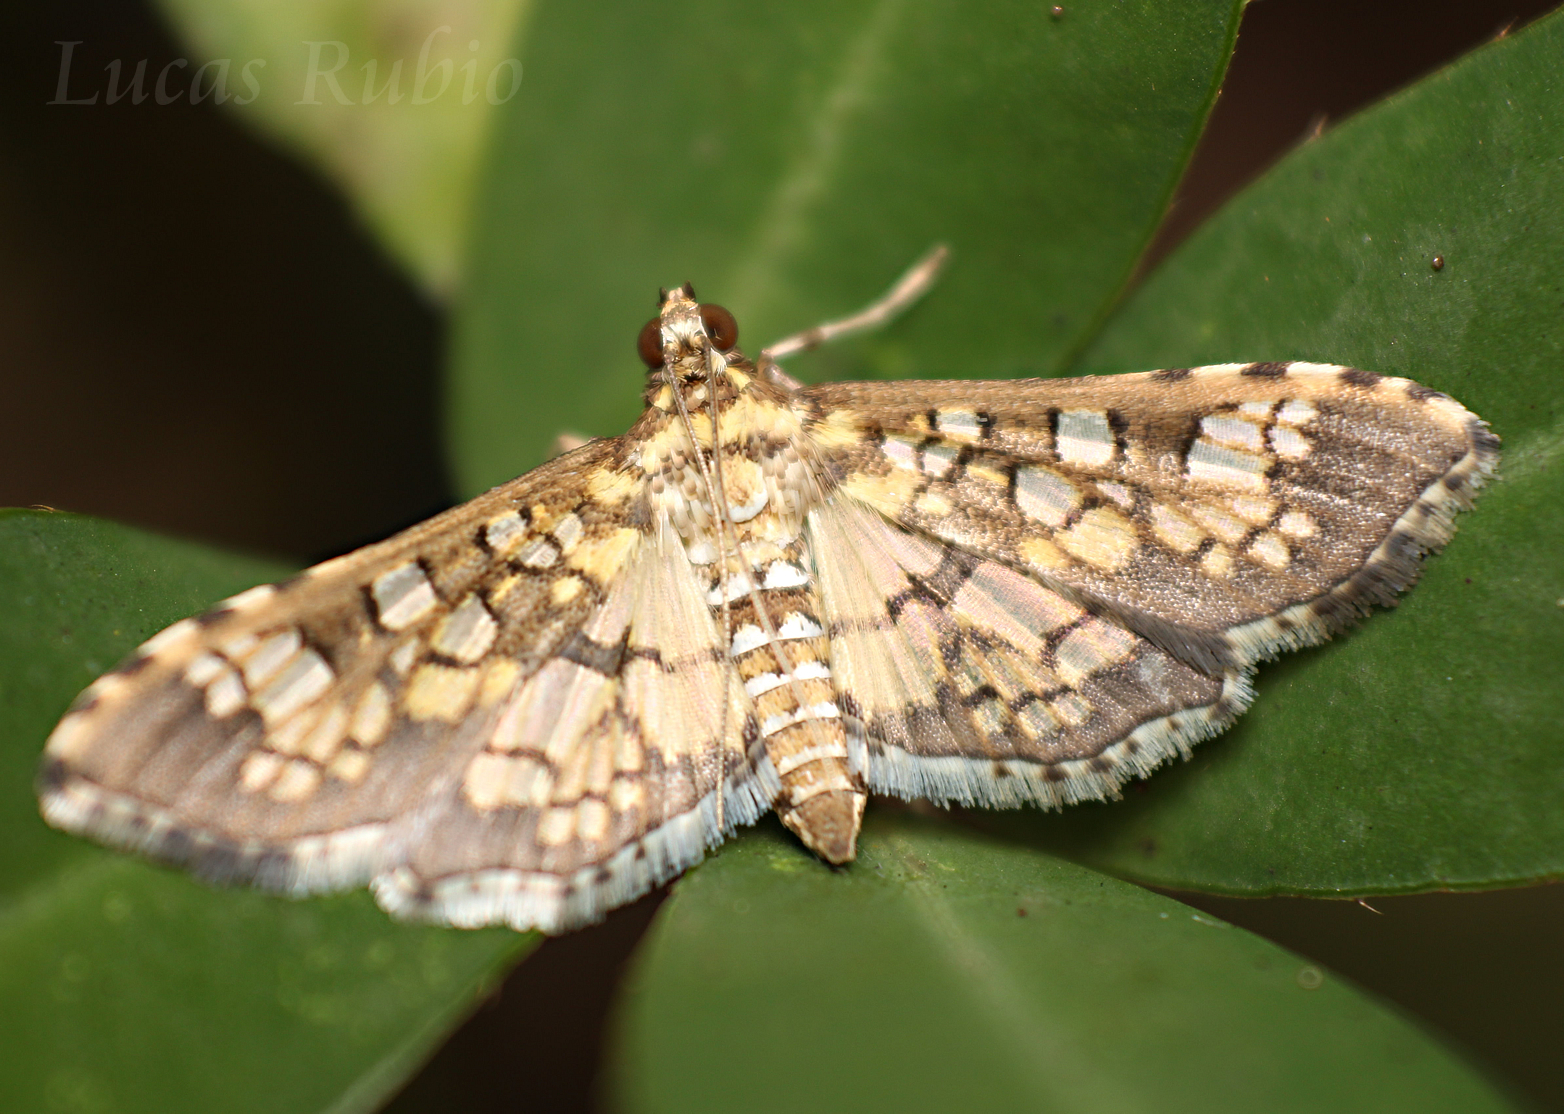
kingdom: Animalia
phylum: Arthropoda
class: Insecta
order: Lepidoptera
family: Crambidae
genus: Samea
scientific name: Samea ecclesialis
